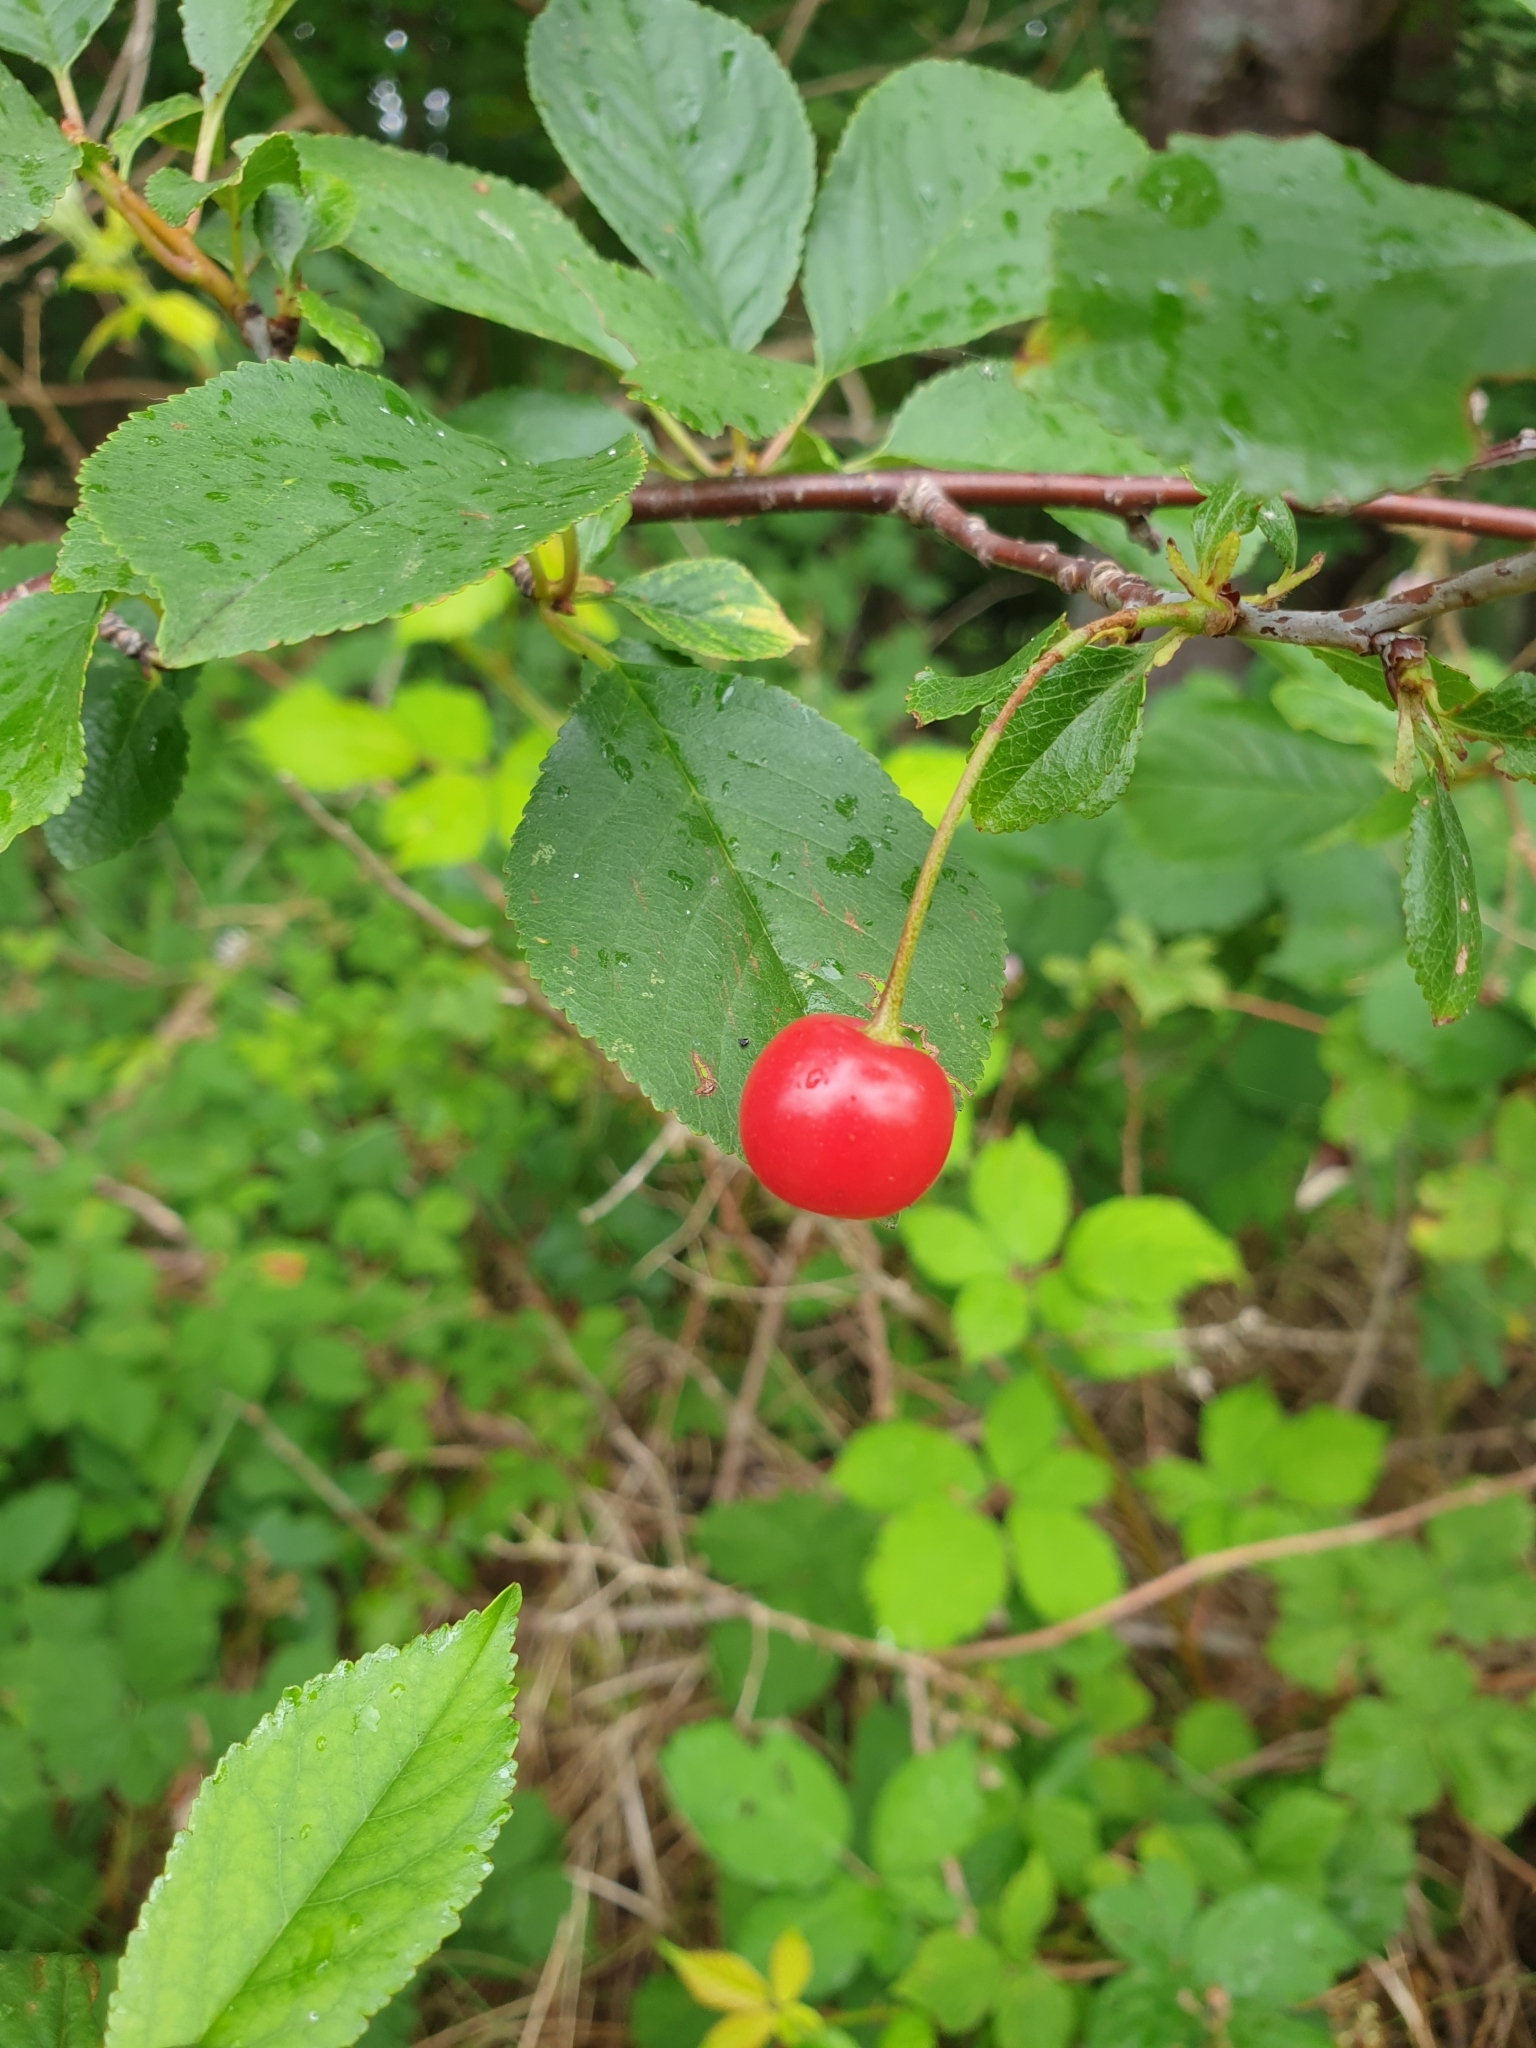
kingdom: Plantae
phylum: Tracheophyta
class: Magnoliopsida
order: Rosales
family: Rosaceae
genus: Prunus
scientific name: Prunus cerasus
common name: Morello cherry
